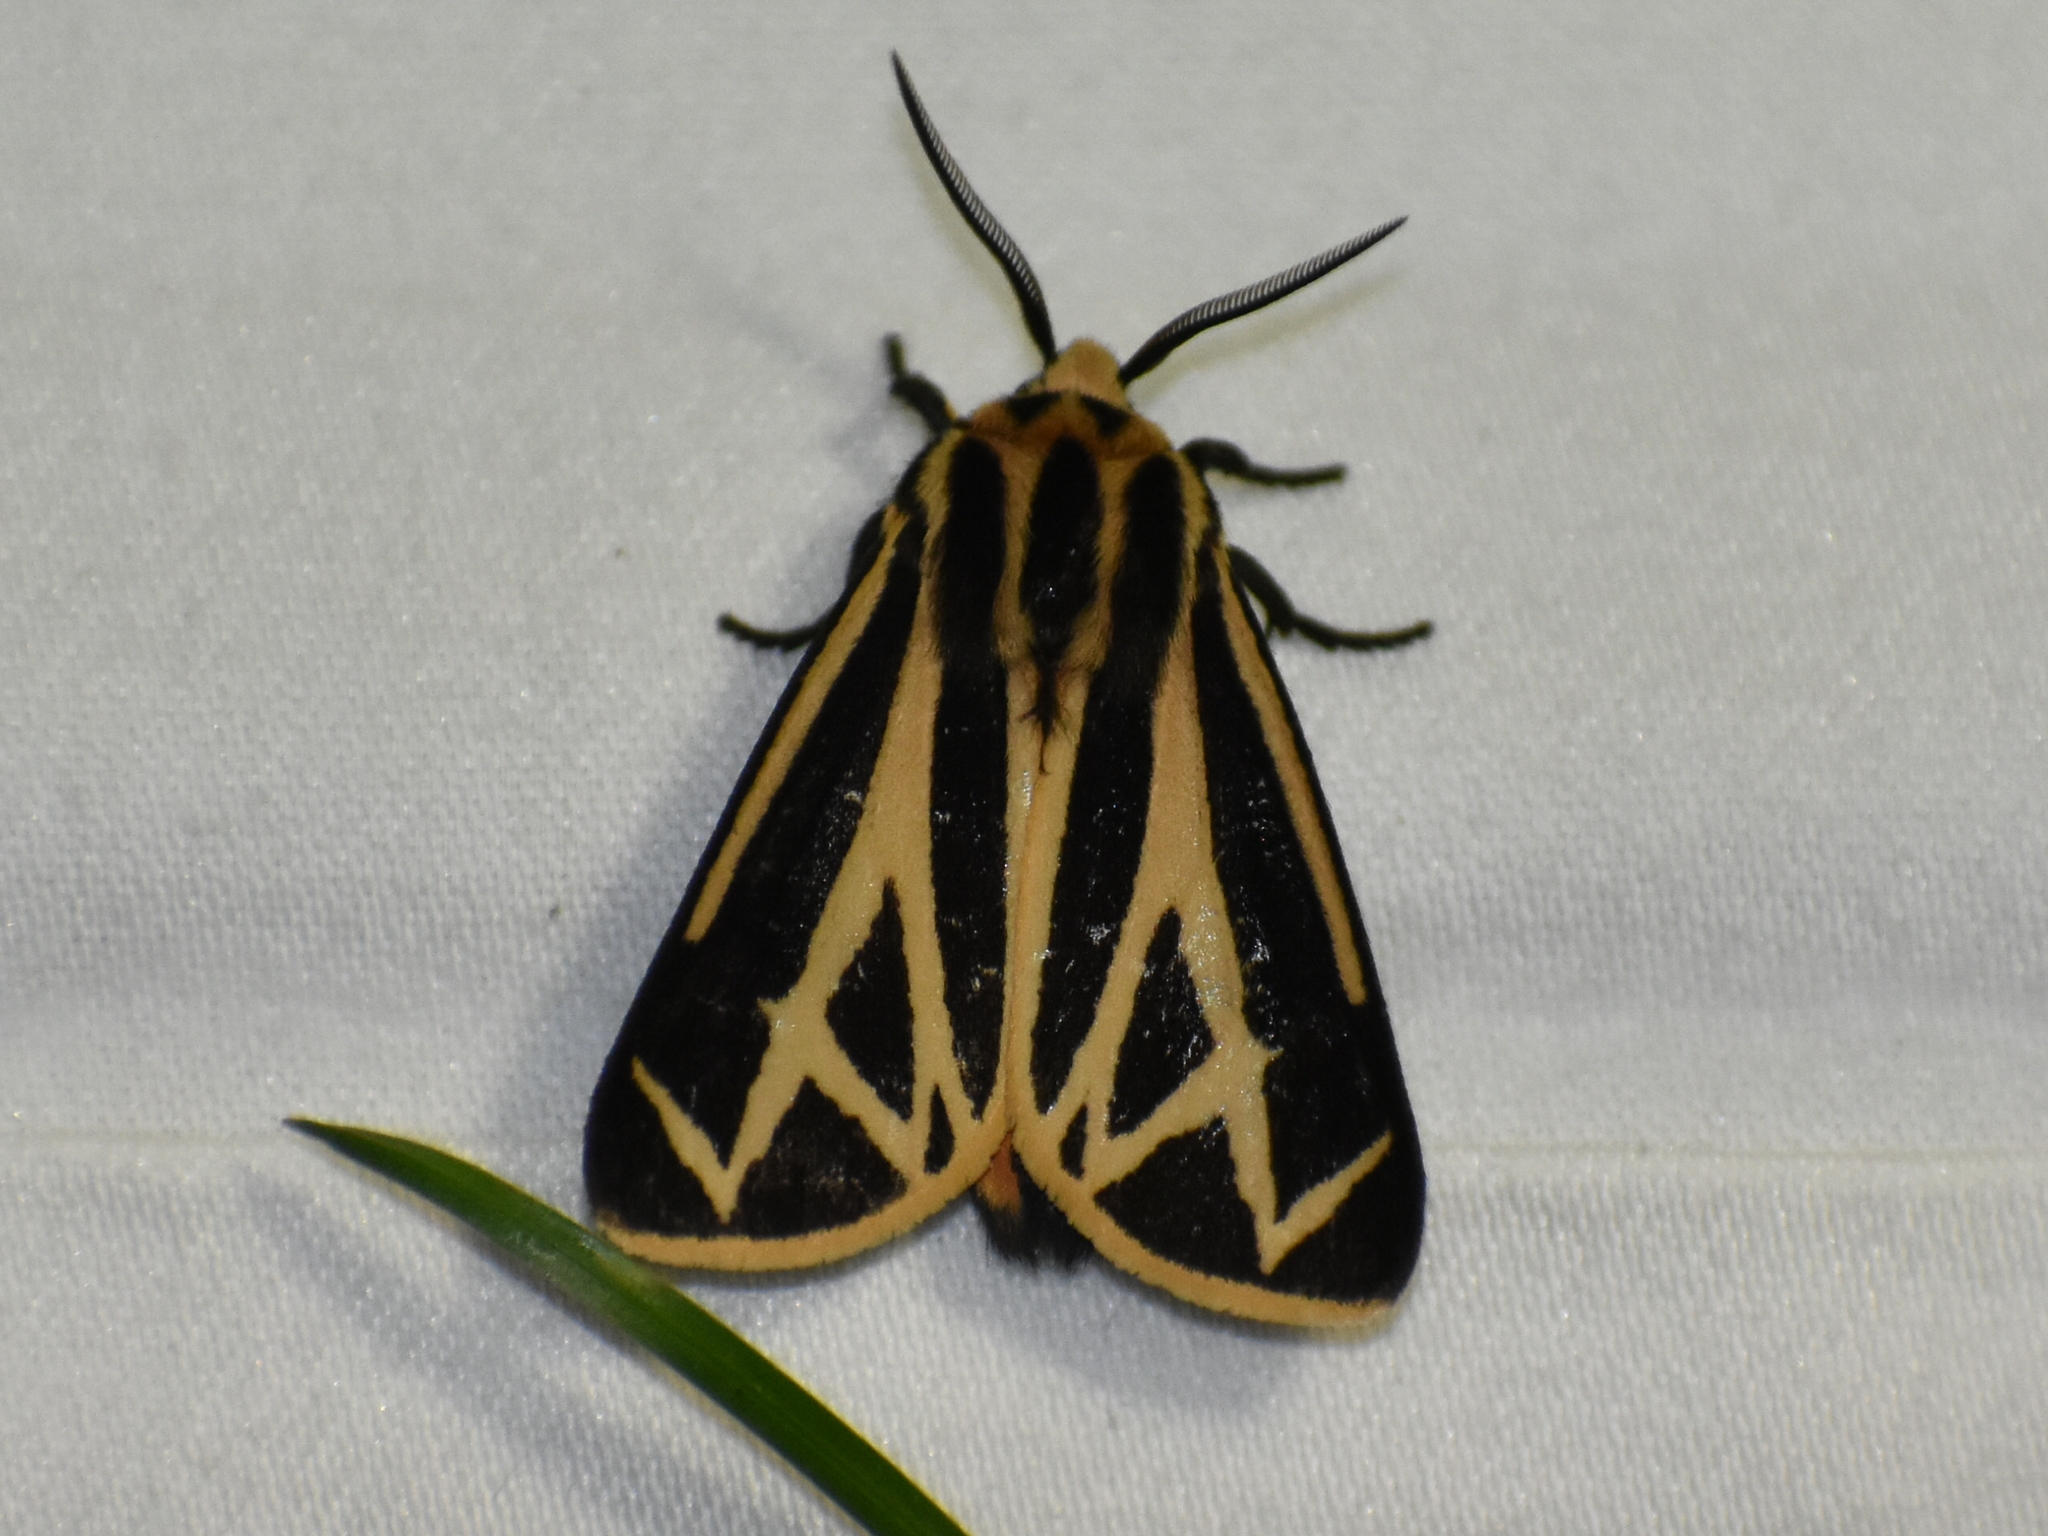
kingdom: Animalia
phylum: Arthropoda
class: Insecta
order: Lepidoptera
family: Erebidae
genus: Apantesis
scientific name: Apantesis carlotta
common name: Carlotta's tiger moth
